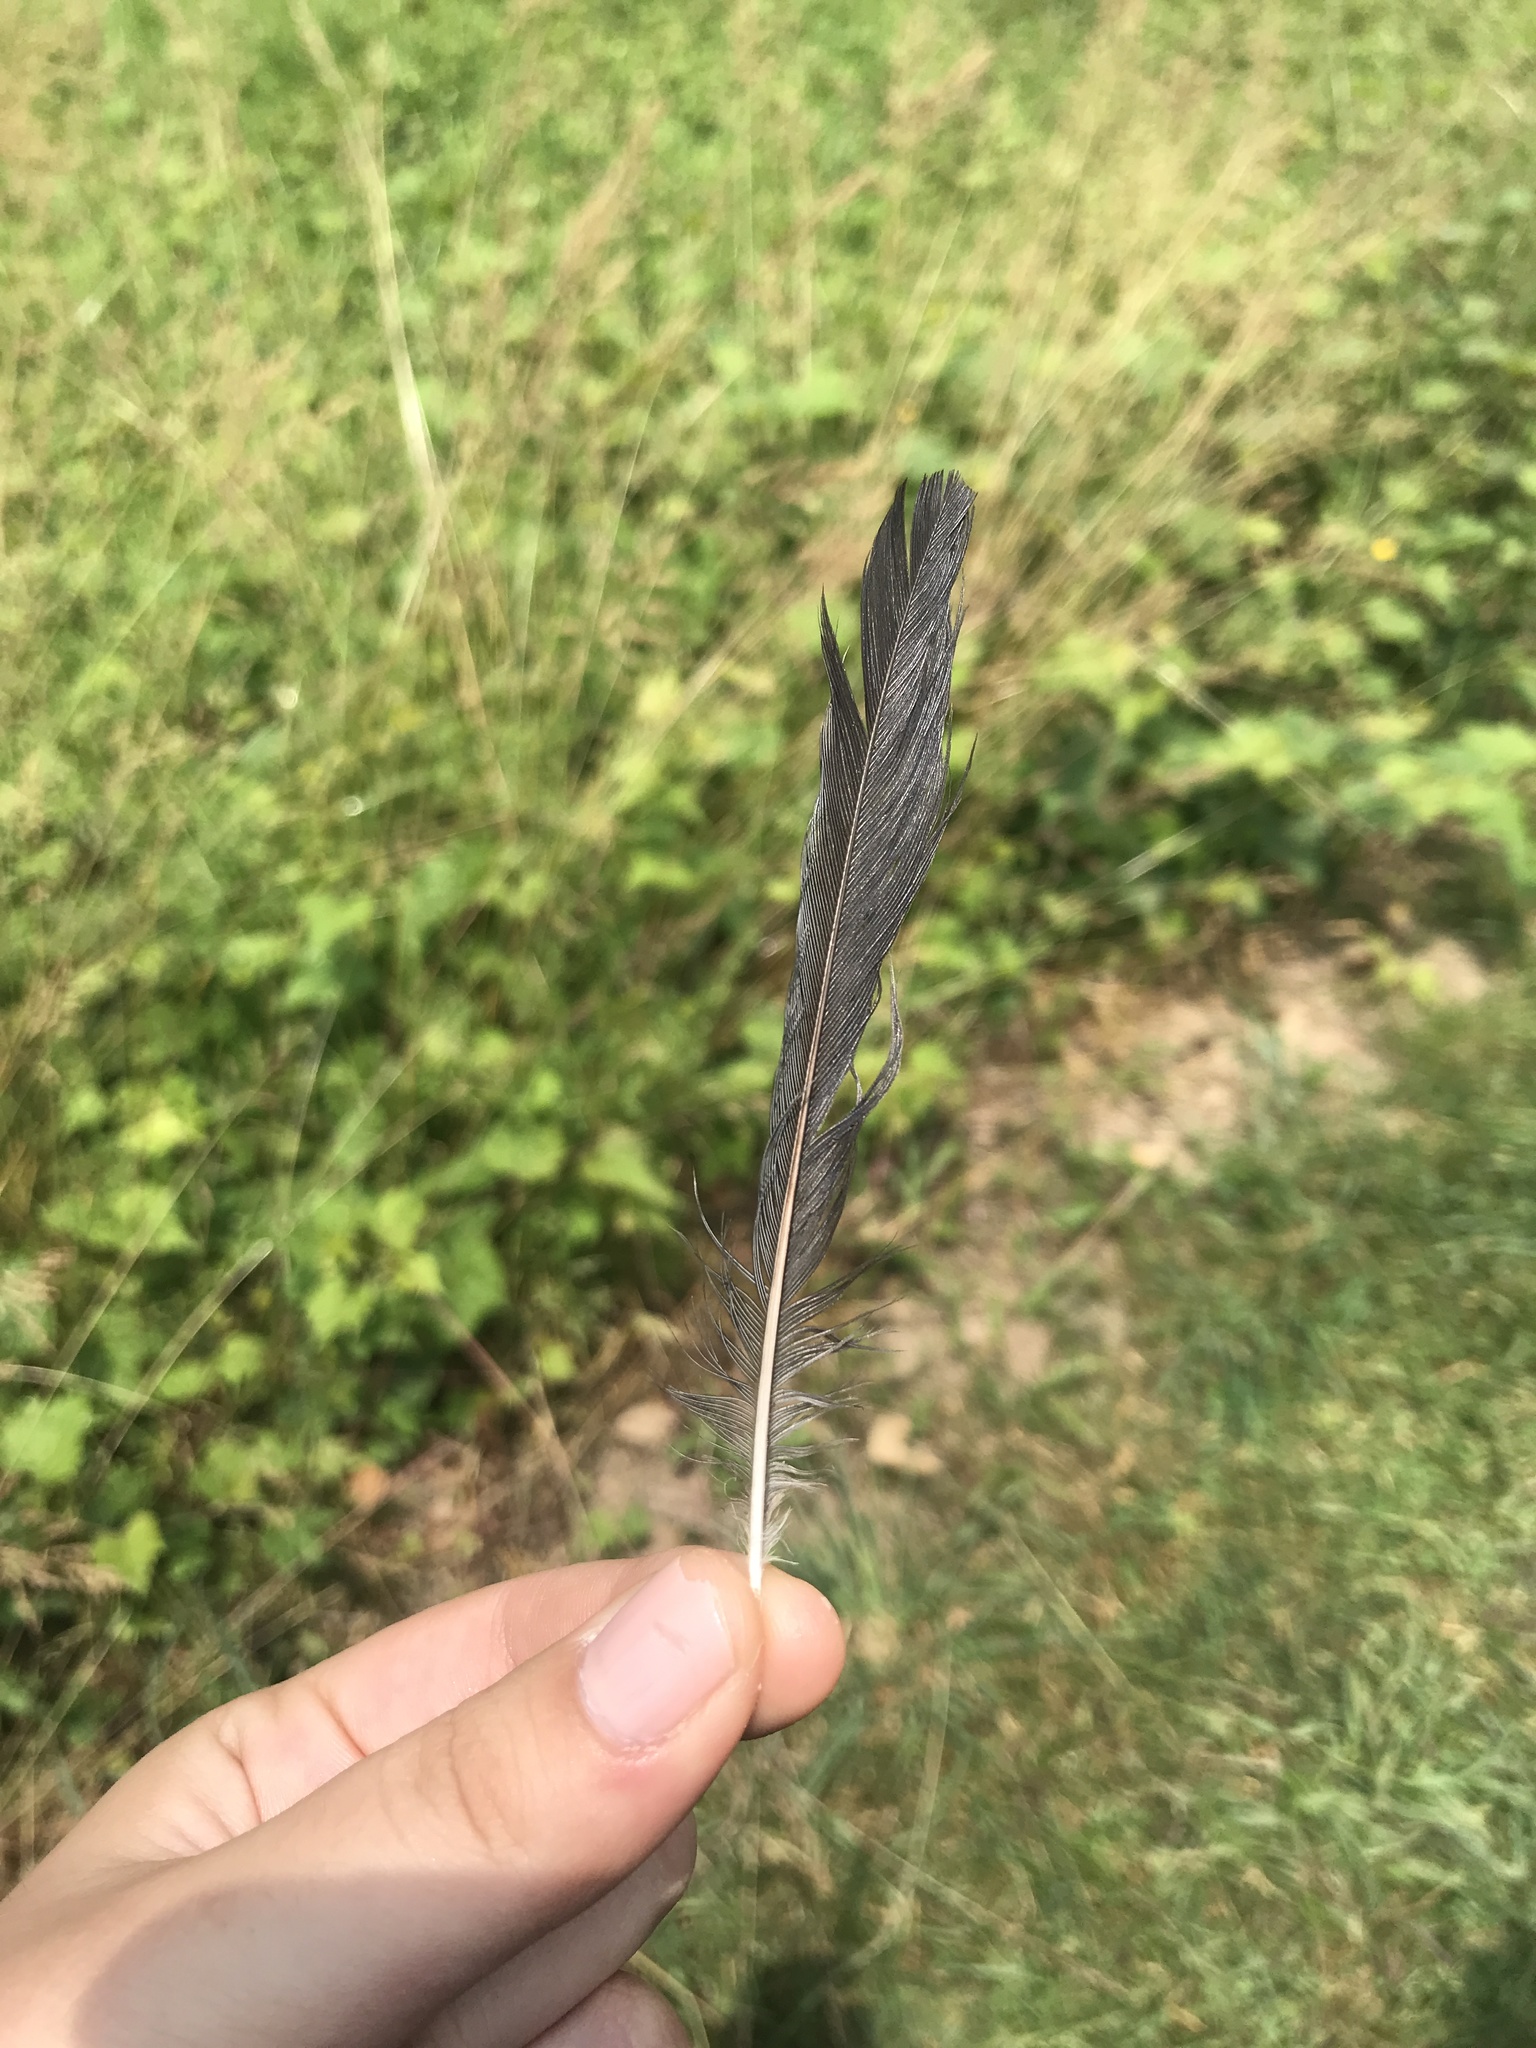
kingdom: Animalia
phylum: Chordata
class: Aves
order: Passeriformes
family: Mimidae
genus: Dumetella
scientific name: Dumetella carolinensis
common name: Gray catbird
